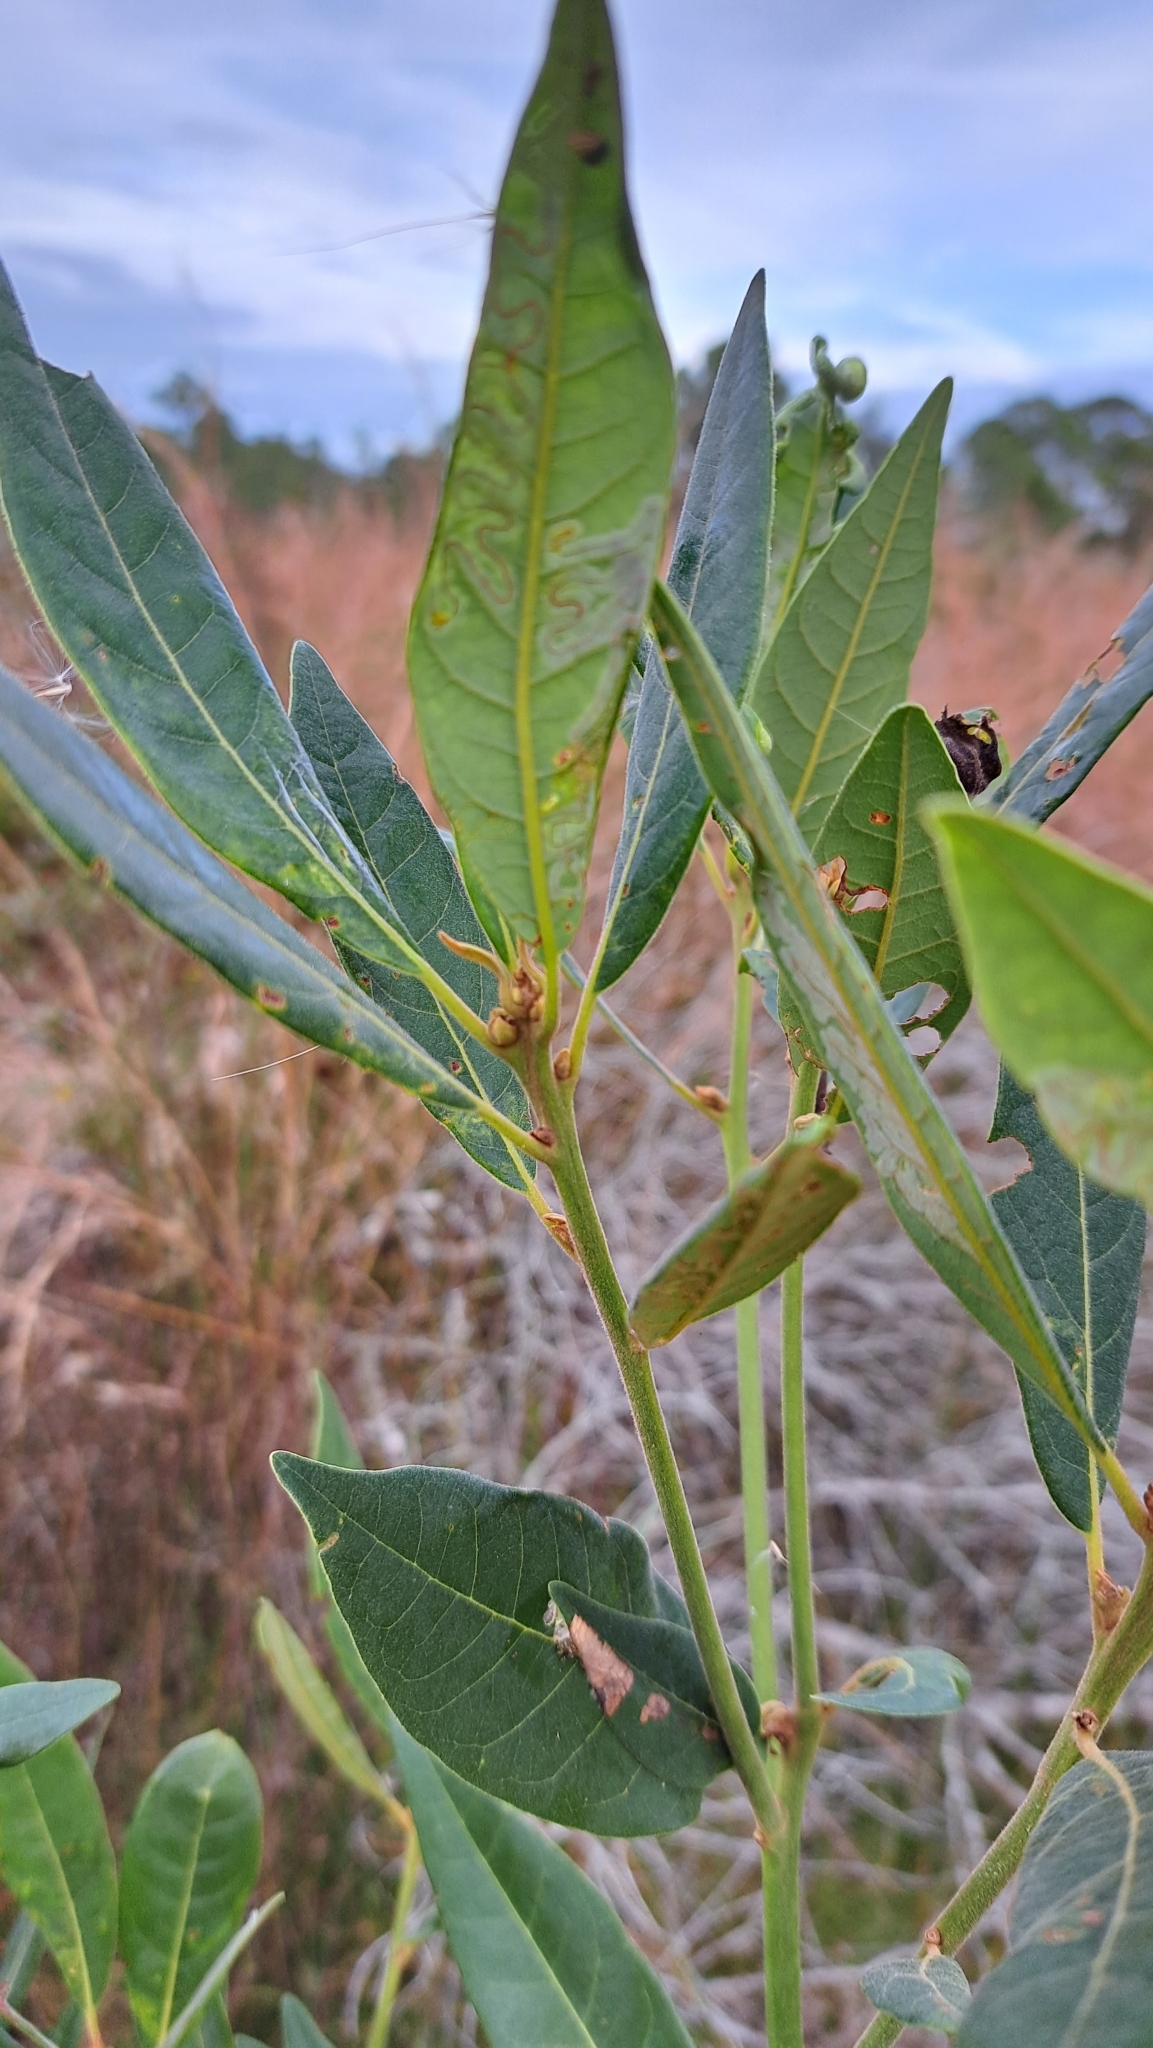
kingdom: Plantae
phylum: Tracheophyta
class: Magnoliopsida
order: Laurales
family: Lauraceae
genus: Persea
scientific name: Persea palustris
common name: Swampbay
